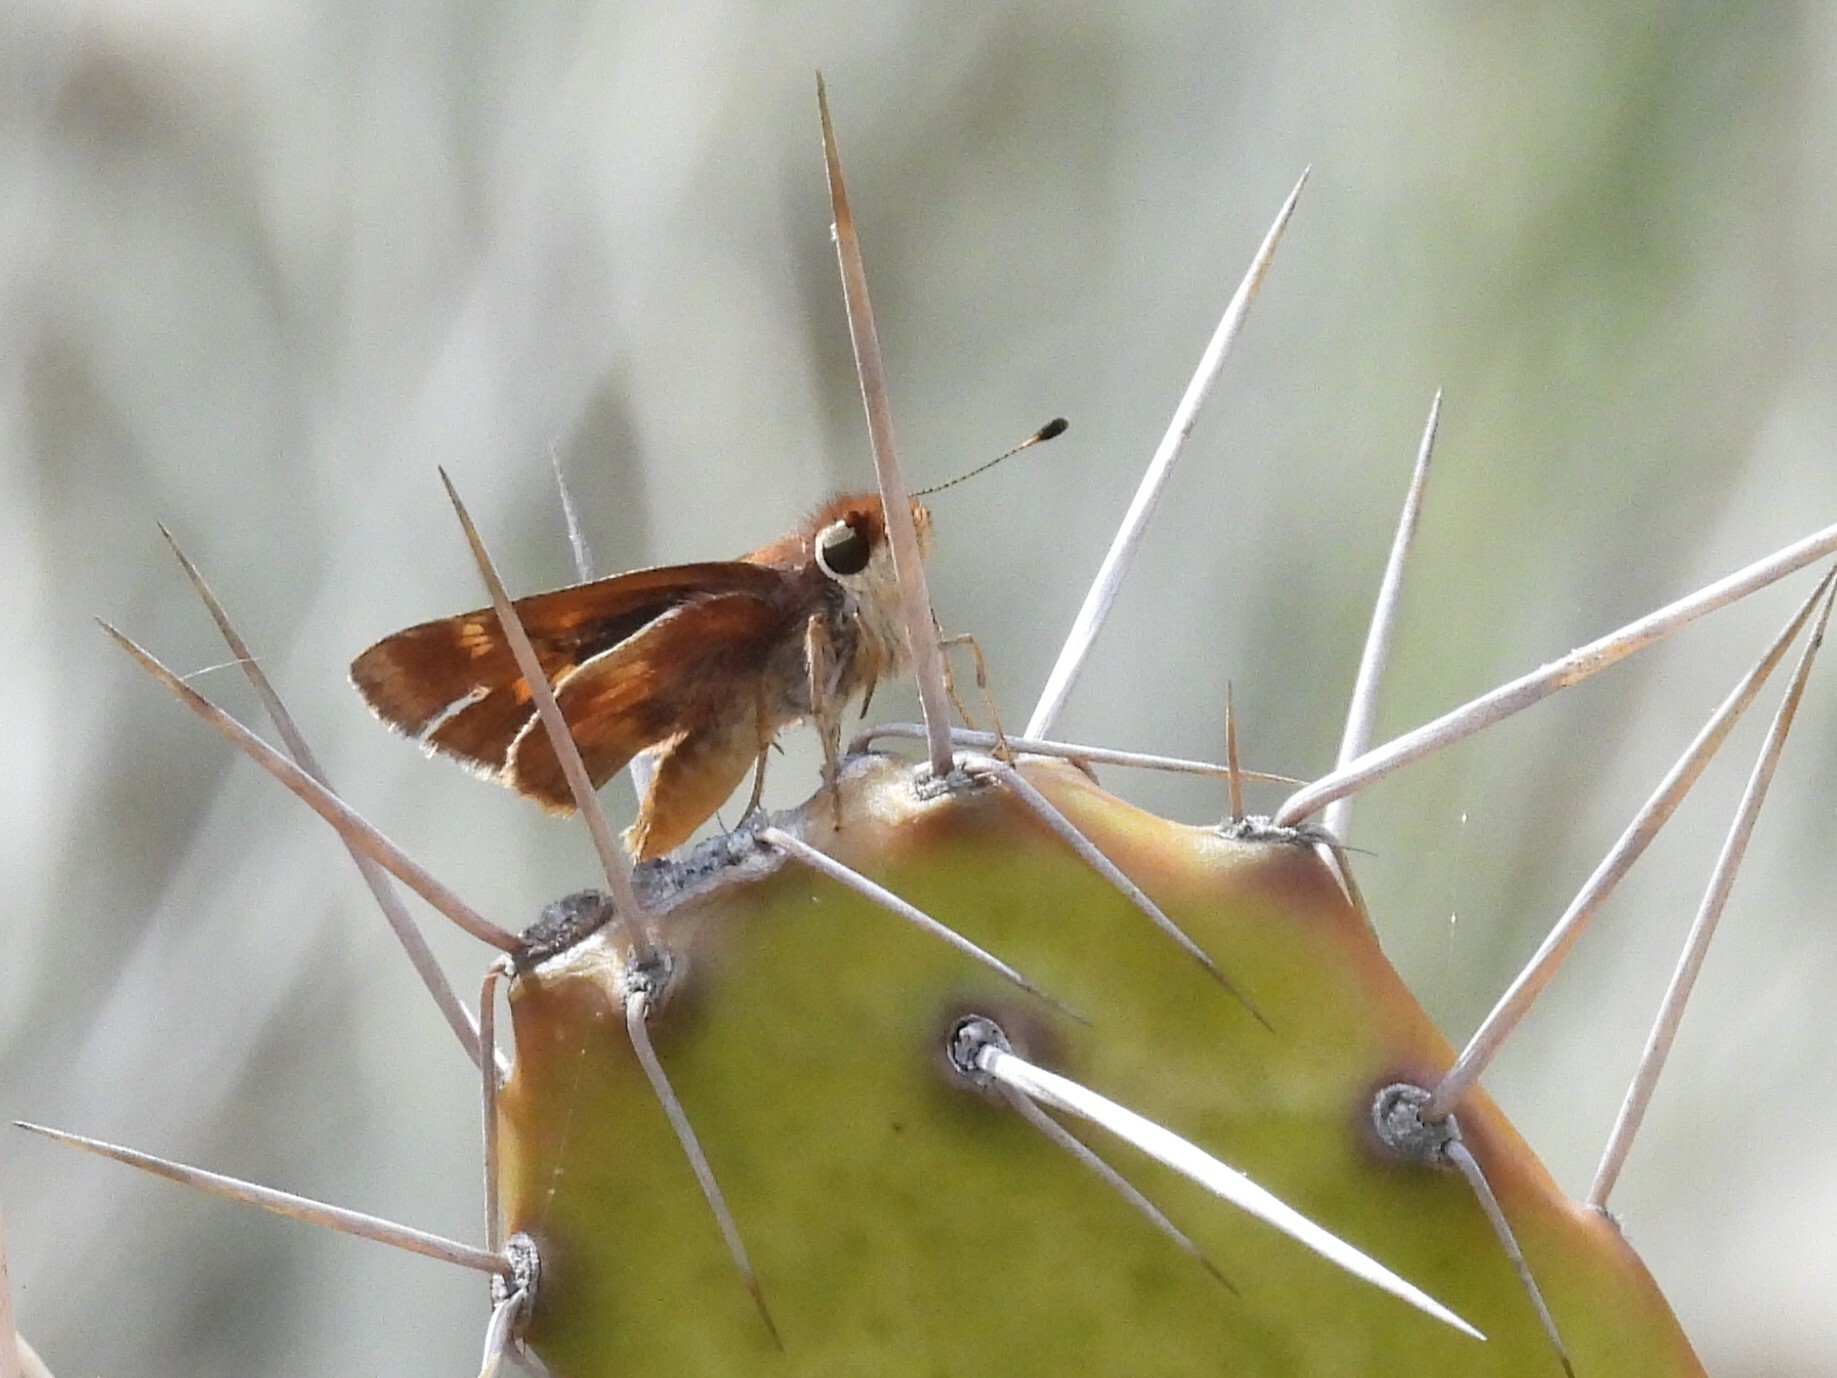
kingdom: Animalia
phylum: Arthropoda
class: Insecta
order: Lepidoptera
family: Hesperiidae
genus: Lon
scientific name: Lon melane
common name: Umber skipper
